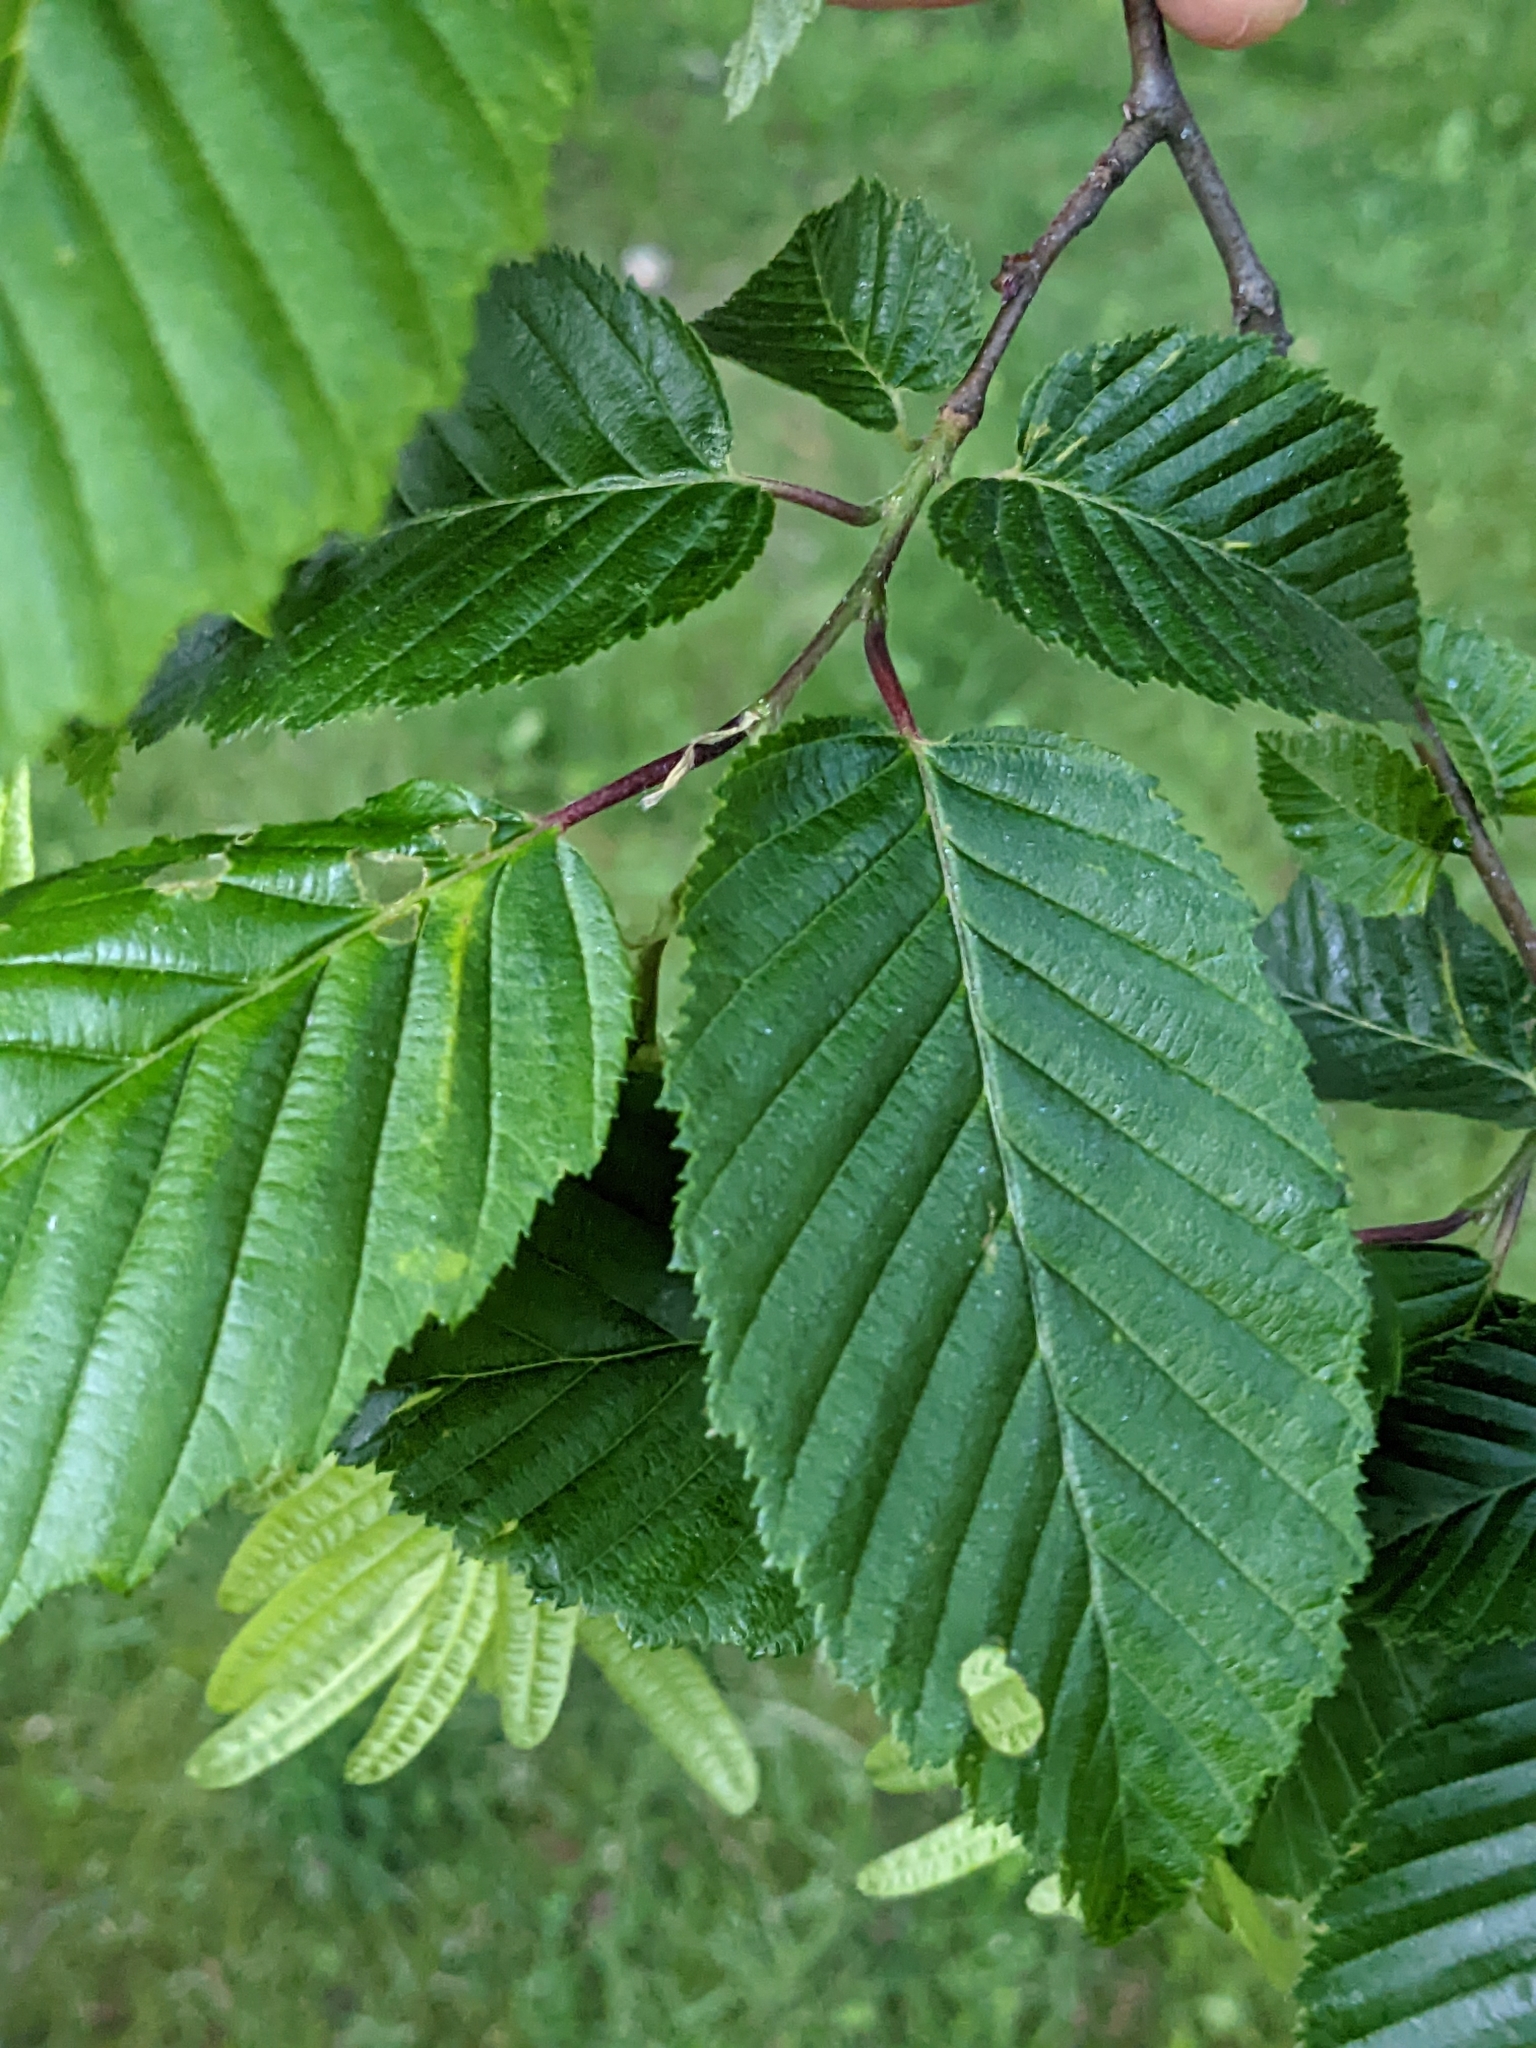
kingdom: Plantae
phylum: Tracheophyta
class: Magnoliopsida
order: Fagales
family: Betulaceae
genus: Carpinus
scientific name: Carpinus betulus
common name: Hornbeam
